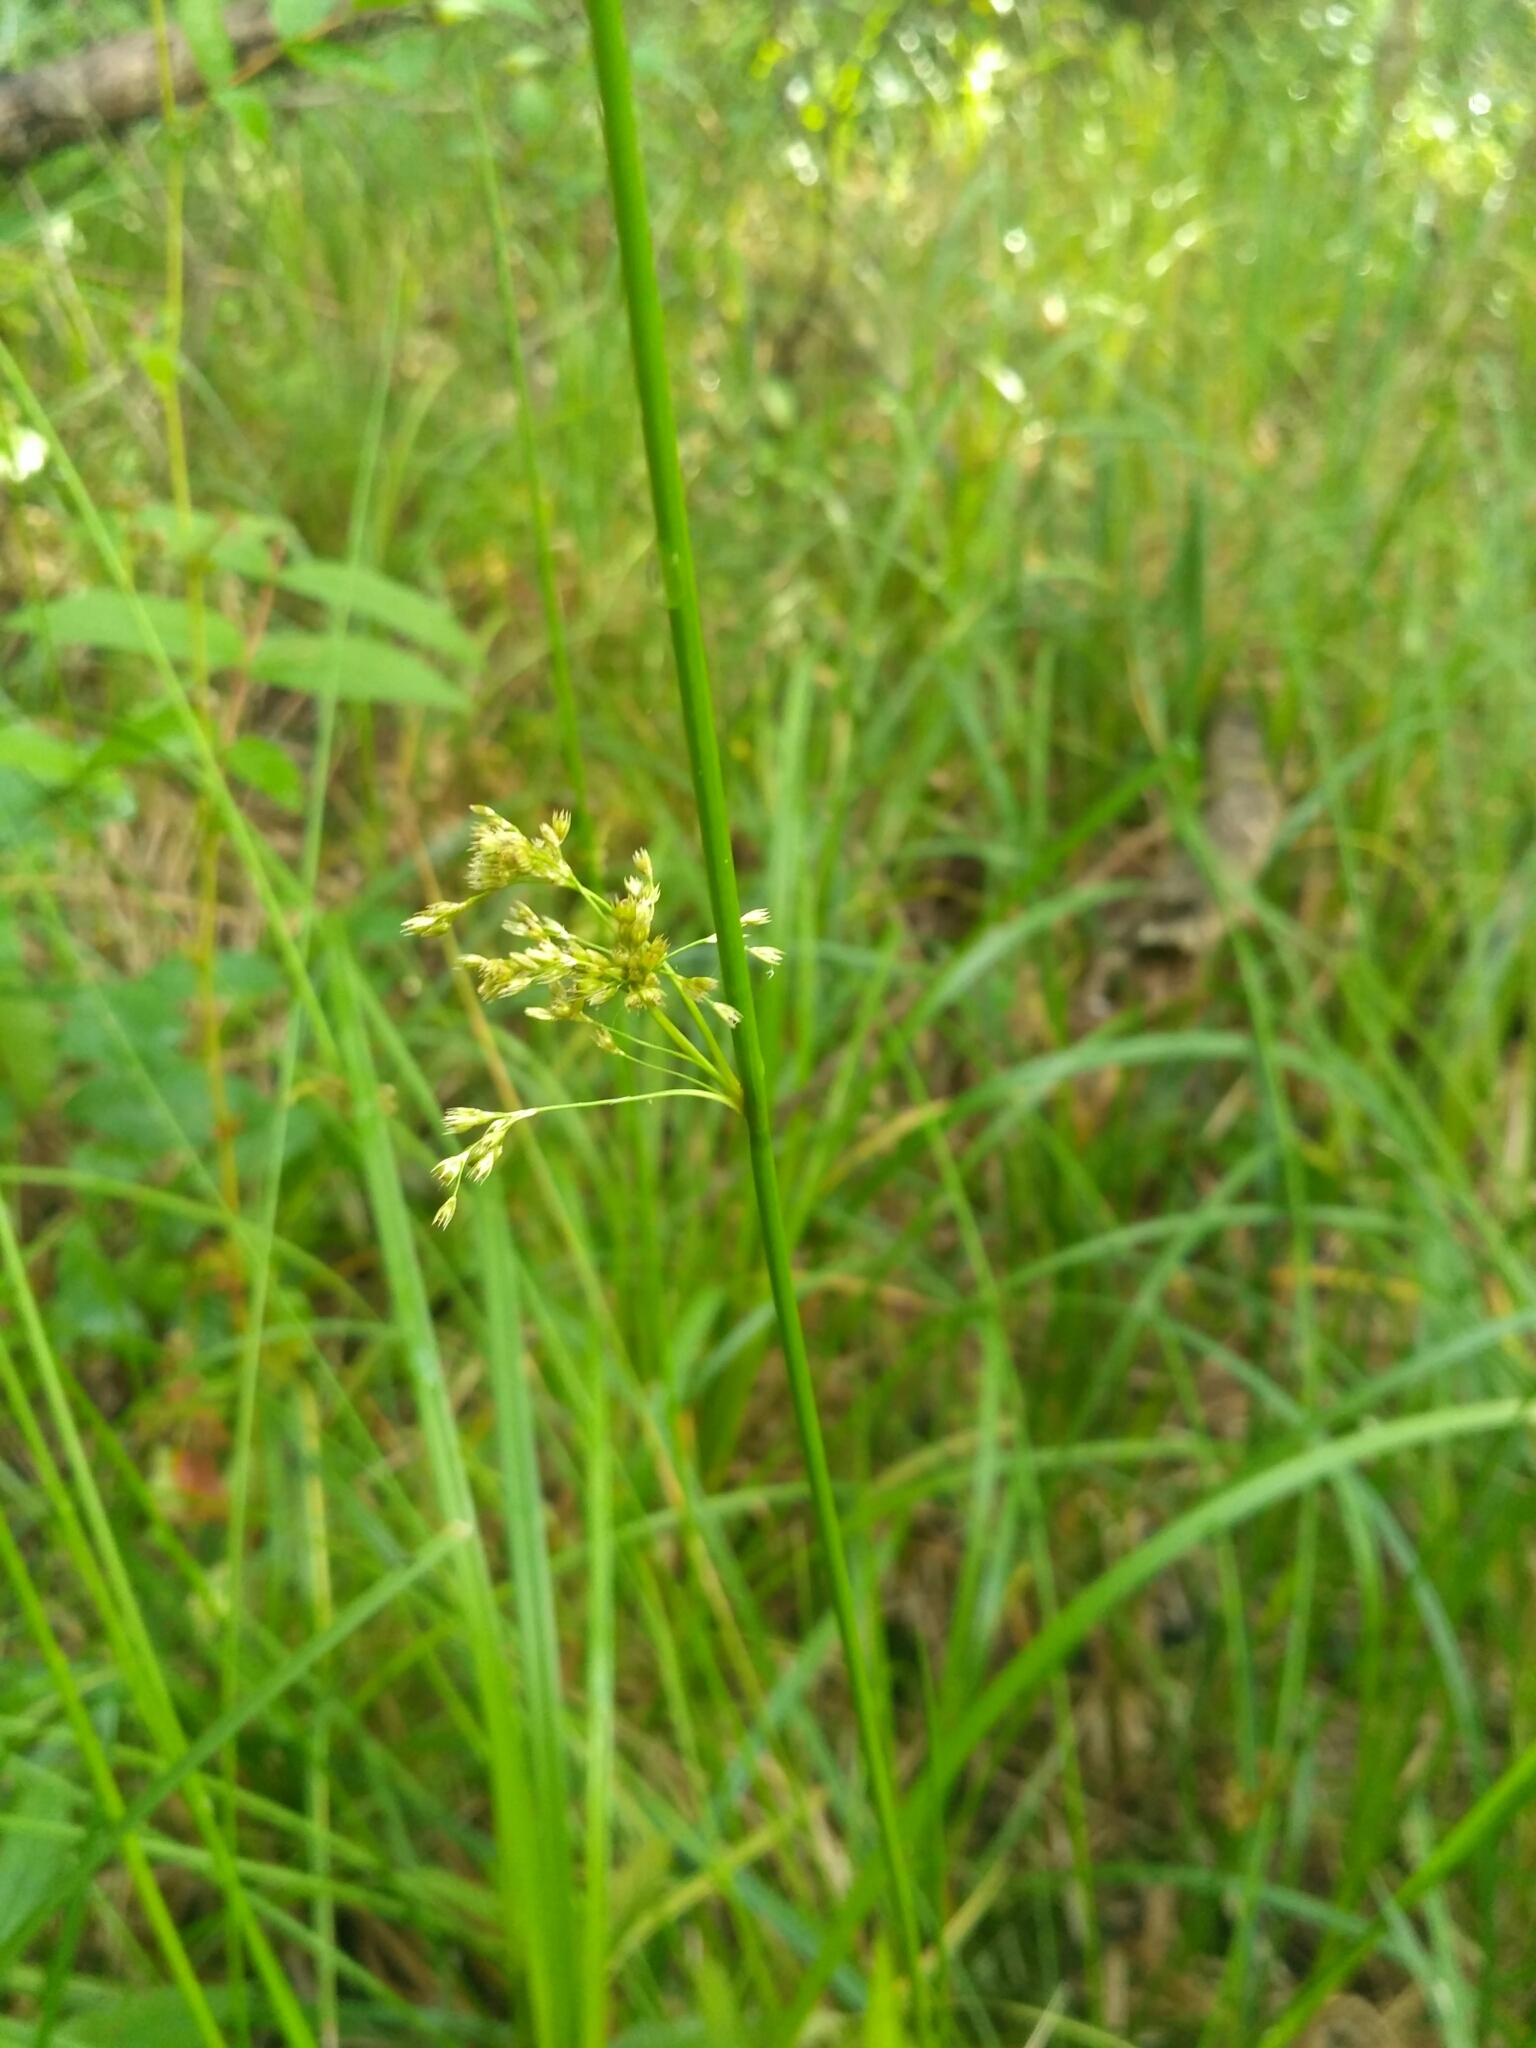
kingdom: Plantae
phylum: Tracheophyta
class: Liliopsida
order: Poales
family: Juncaceae
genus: Juncus
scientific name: Juncus effusus
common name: Soft rush
